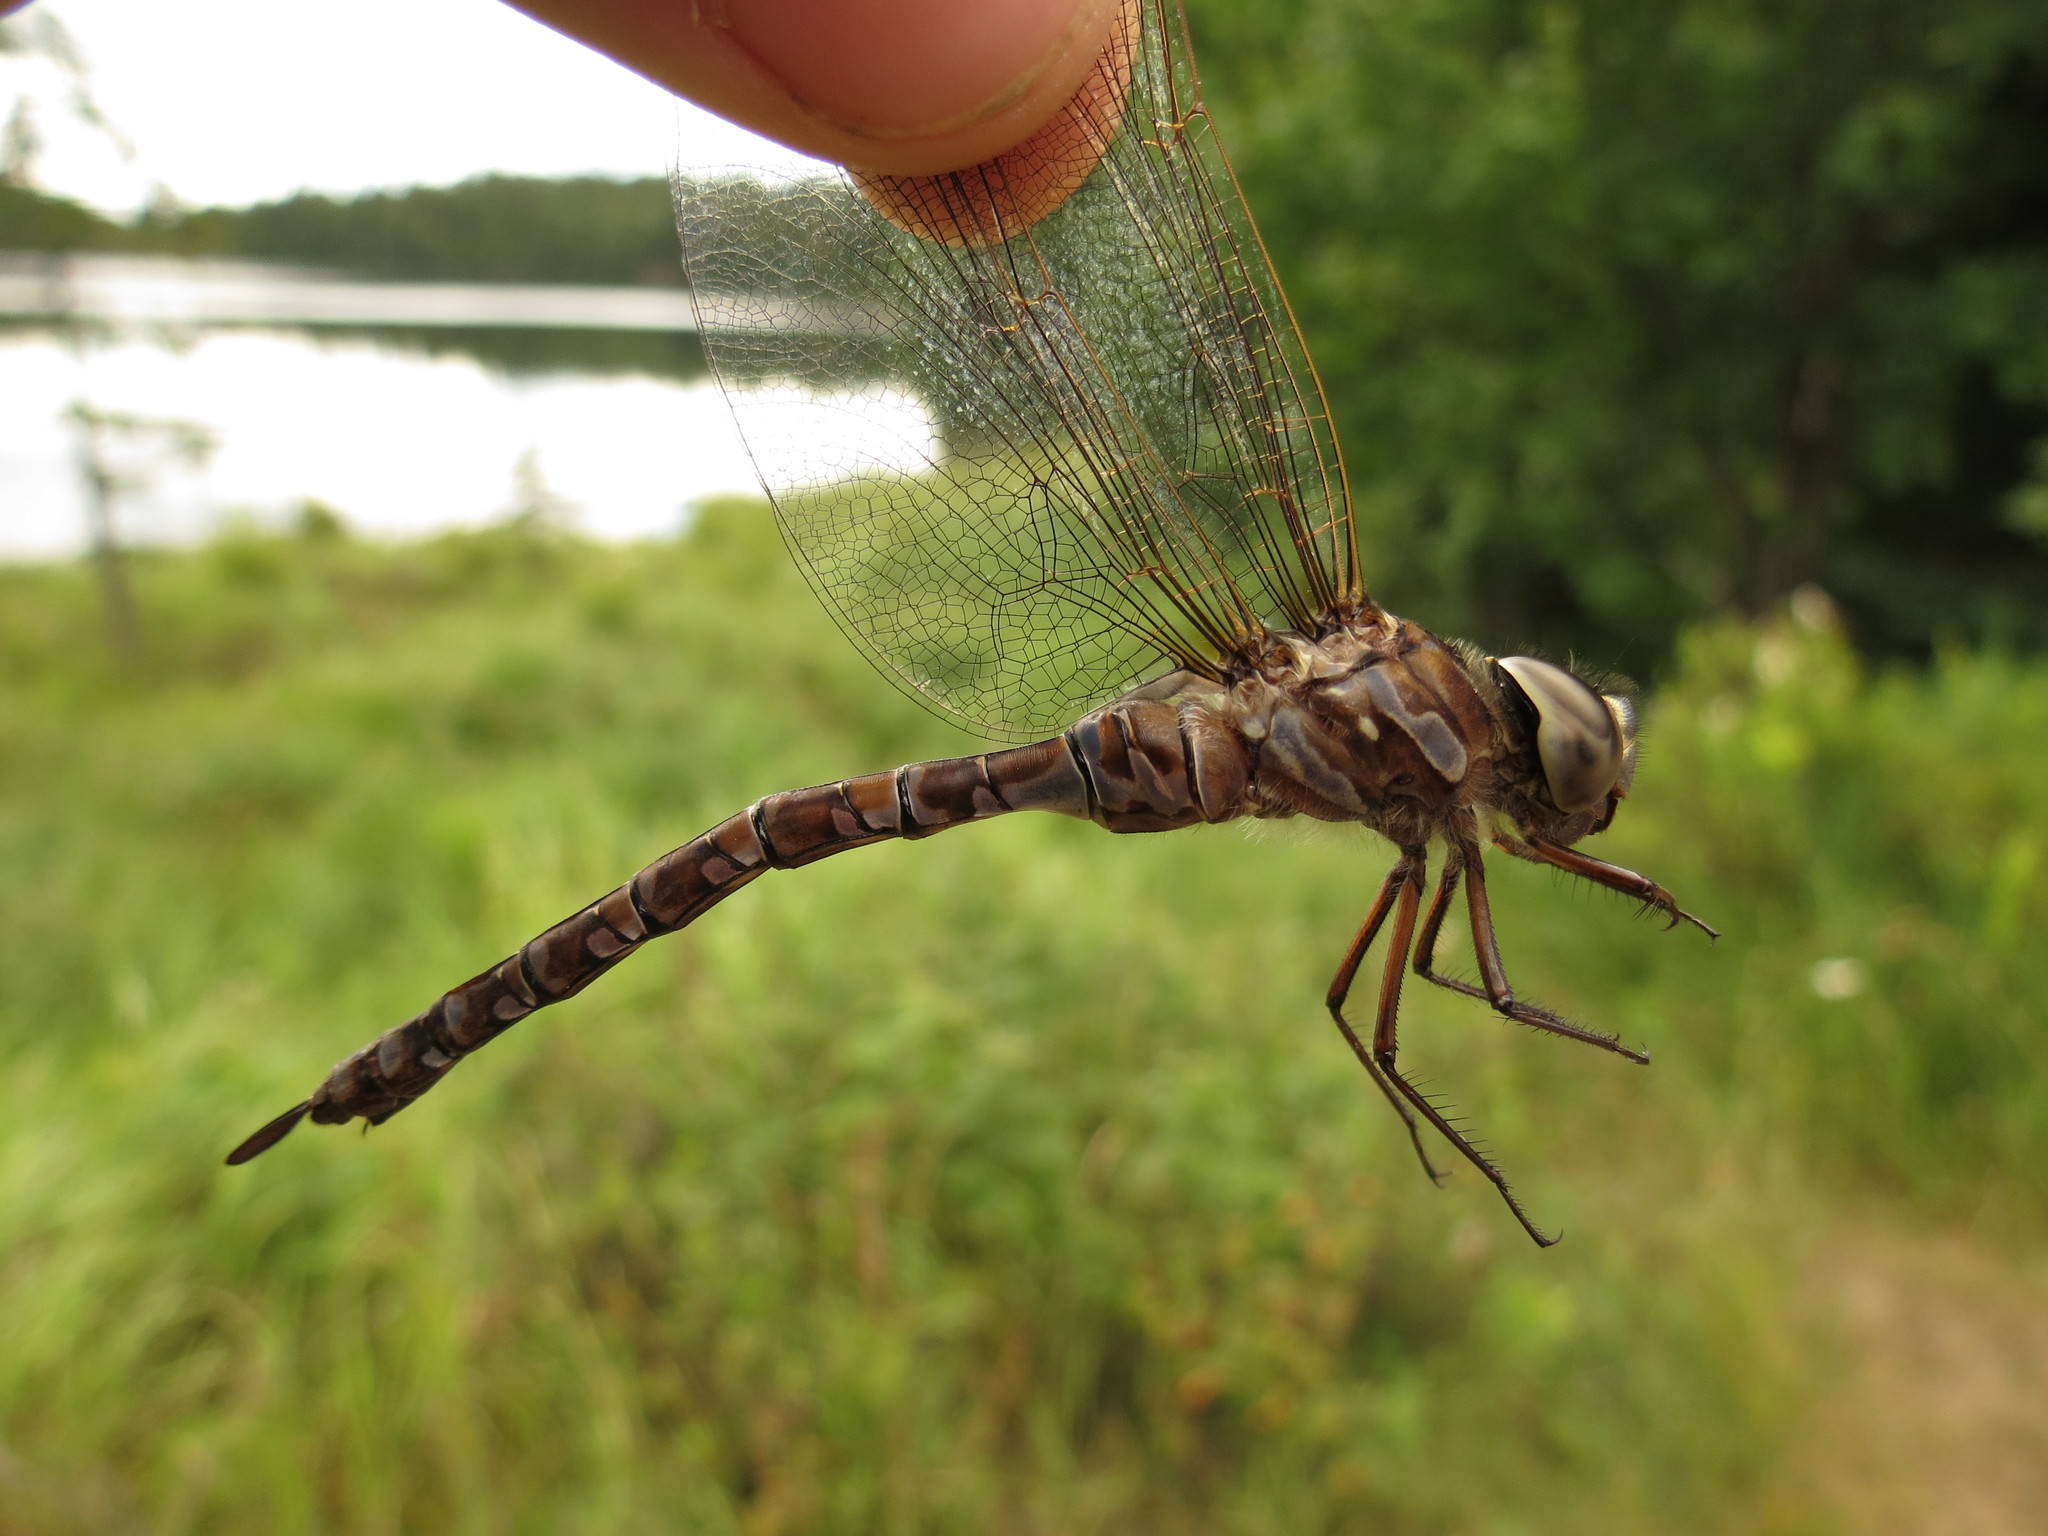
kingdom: Animalia
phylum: Arthropoda
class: Insecta
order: Odonata
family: Aeshnidae
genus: Aeshna
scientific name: Aeshna canadensis
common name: Canada darner
